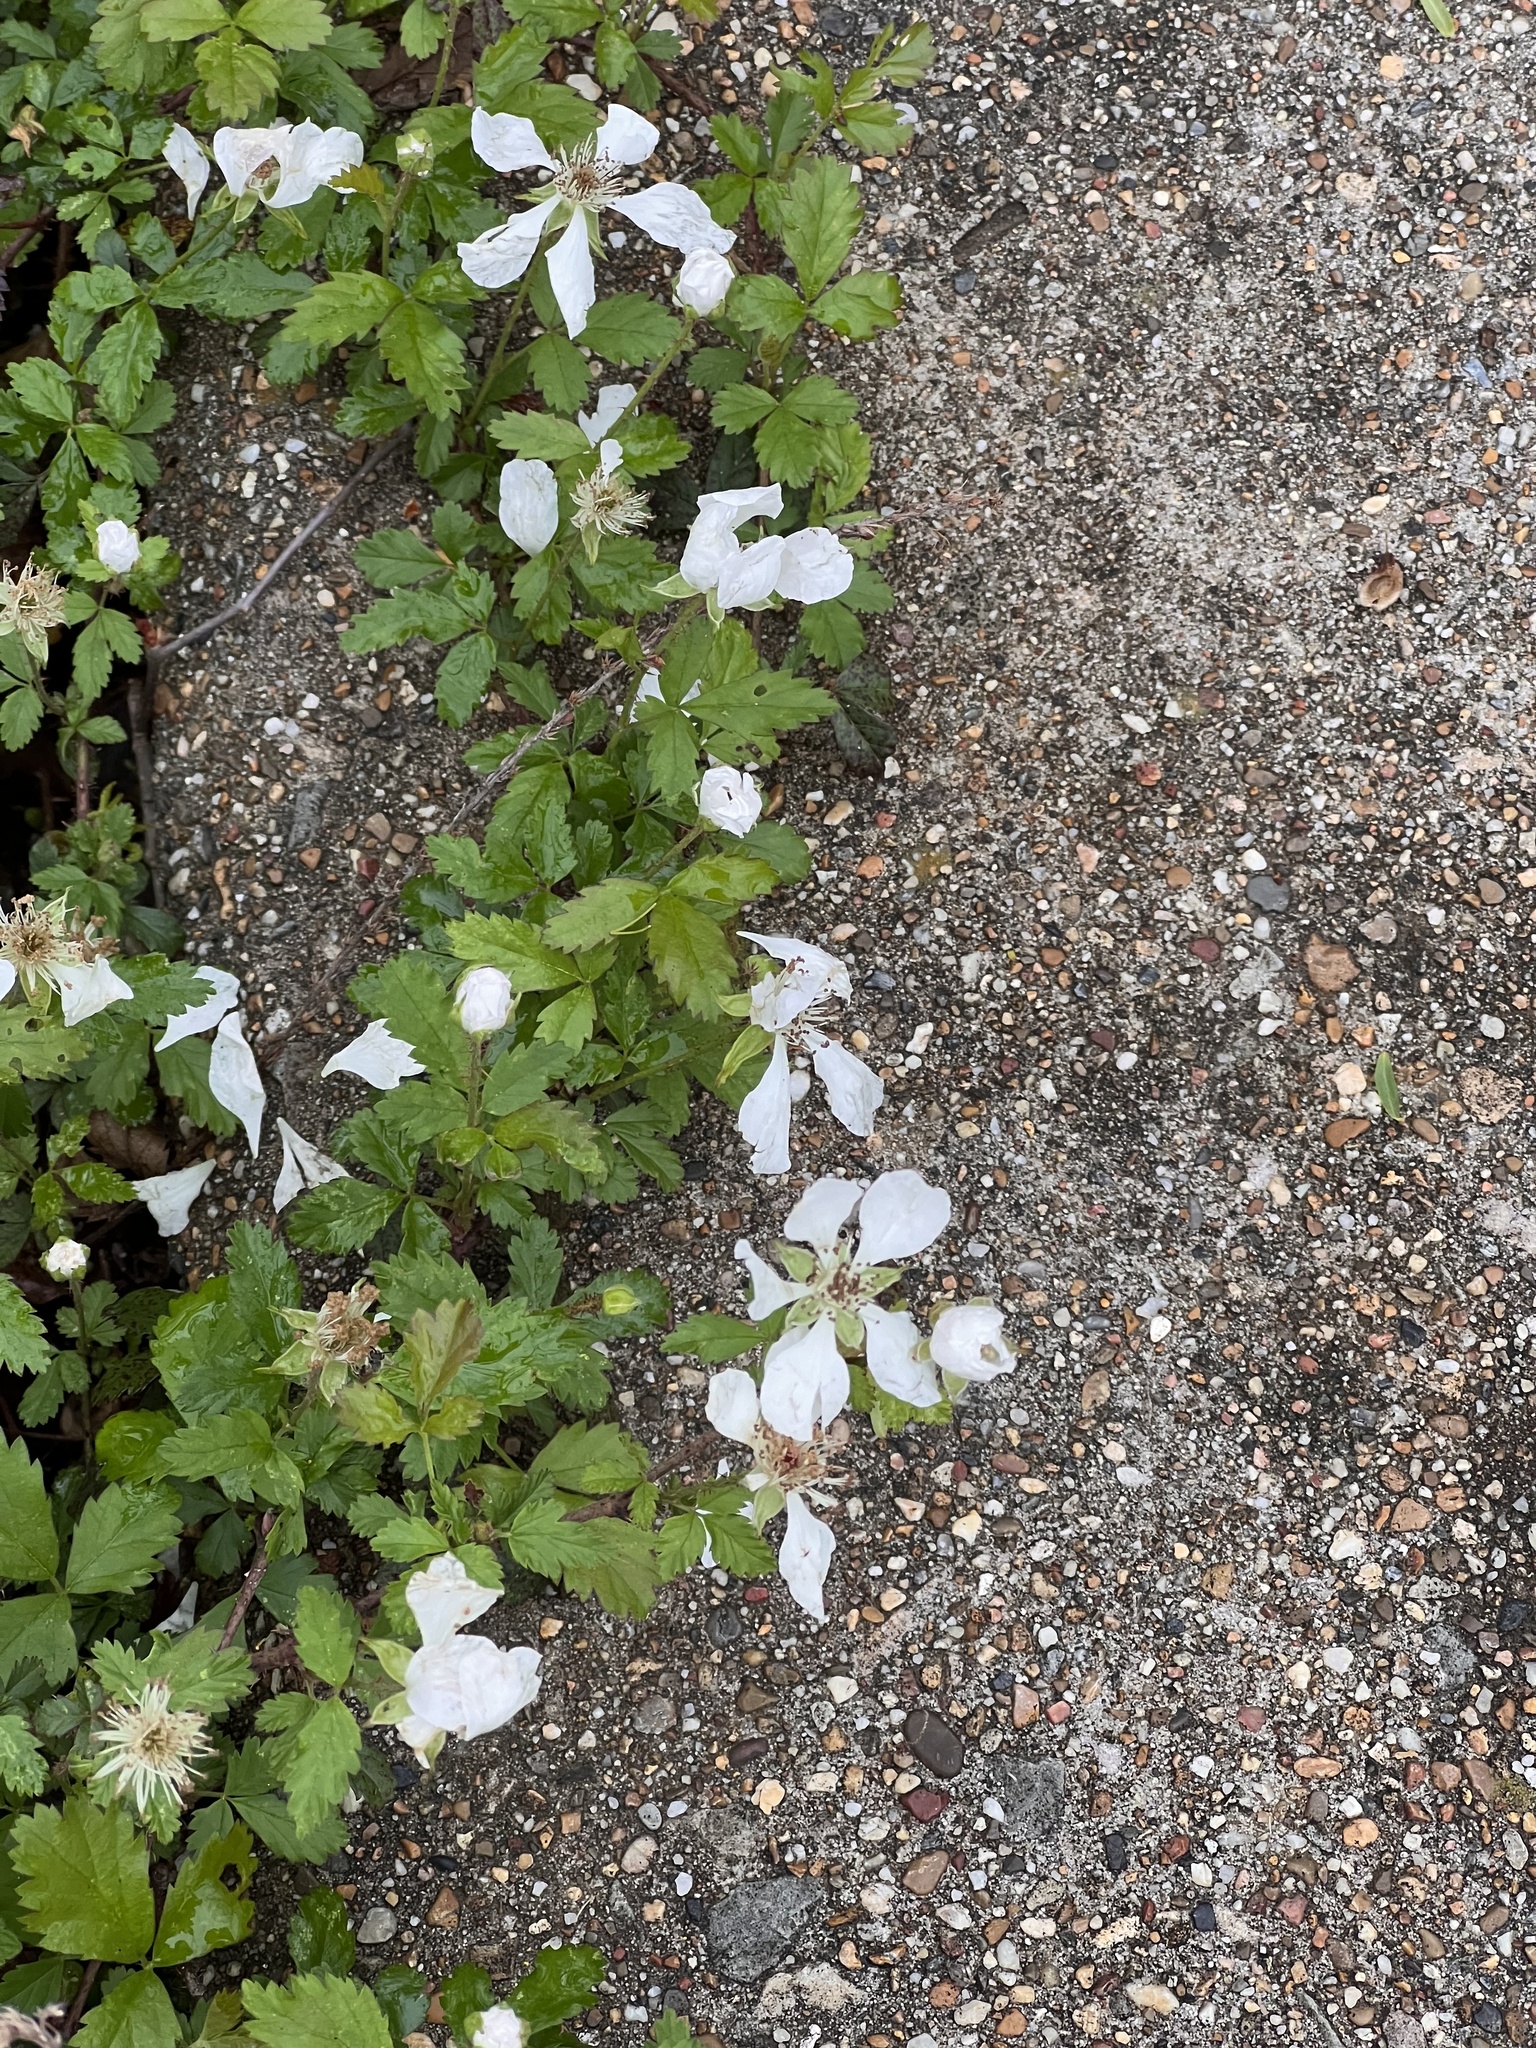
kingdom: Plantae
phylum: Tracheophyta
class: Magnoliopsida
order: Rosales
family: Rosaceae
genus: Rubus
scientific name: Rubus trivialis
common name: Southern dewberry
